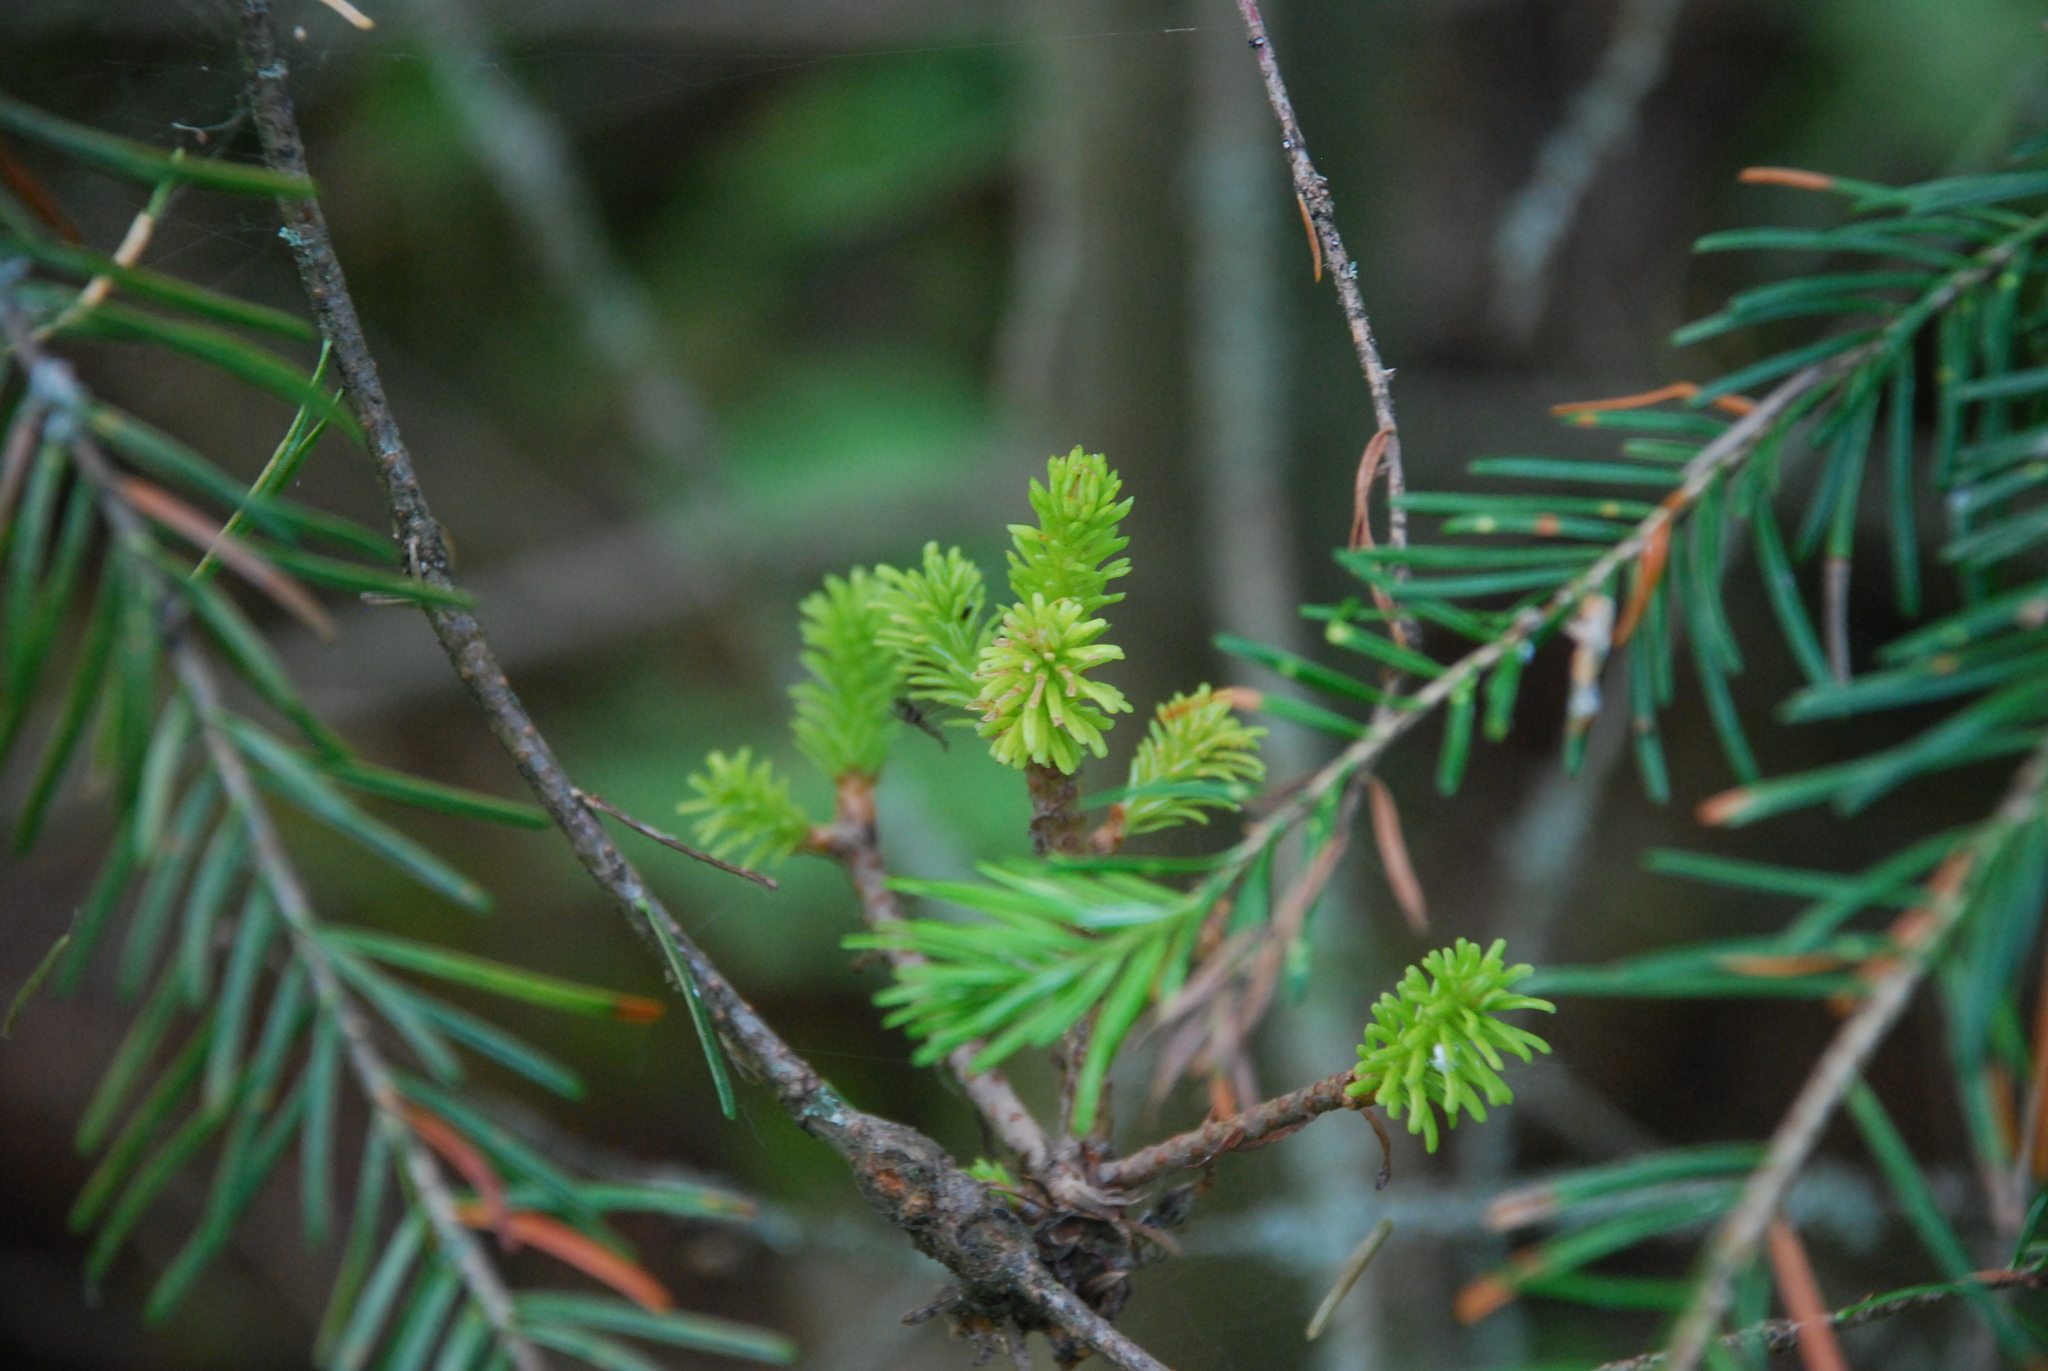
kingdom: Fungi
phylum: Basidiomycota
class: Pucciniomycetes
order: Pucciniales
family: Pucciniastraceae
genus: Melampsorella
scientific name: Melampsorella elatina
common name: Fir broom rust
